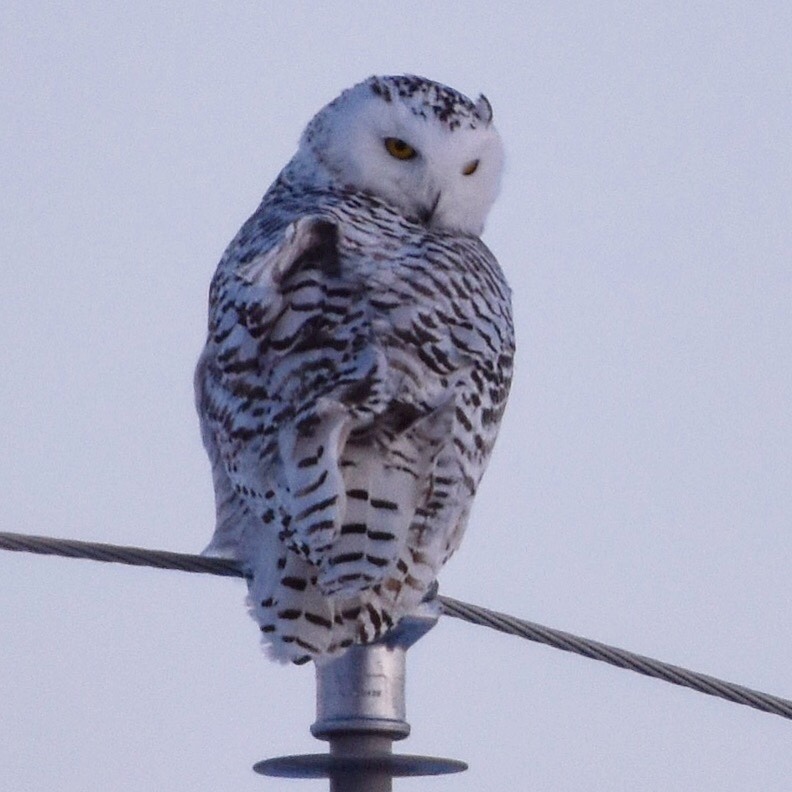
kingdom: Animalia
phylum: Chordata
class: Aves
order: Strigiformes
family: Strigidae
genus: Bubo
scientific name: Bubo scandiacus
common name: Snowy owl
